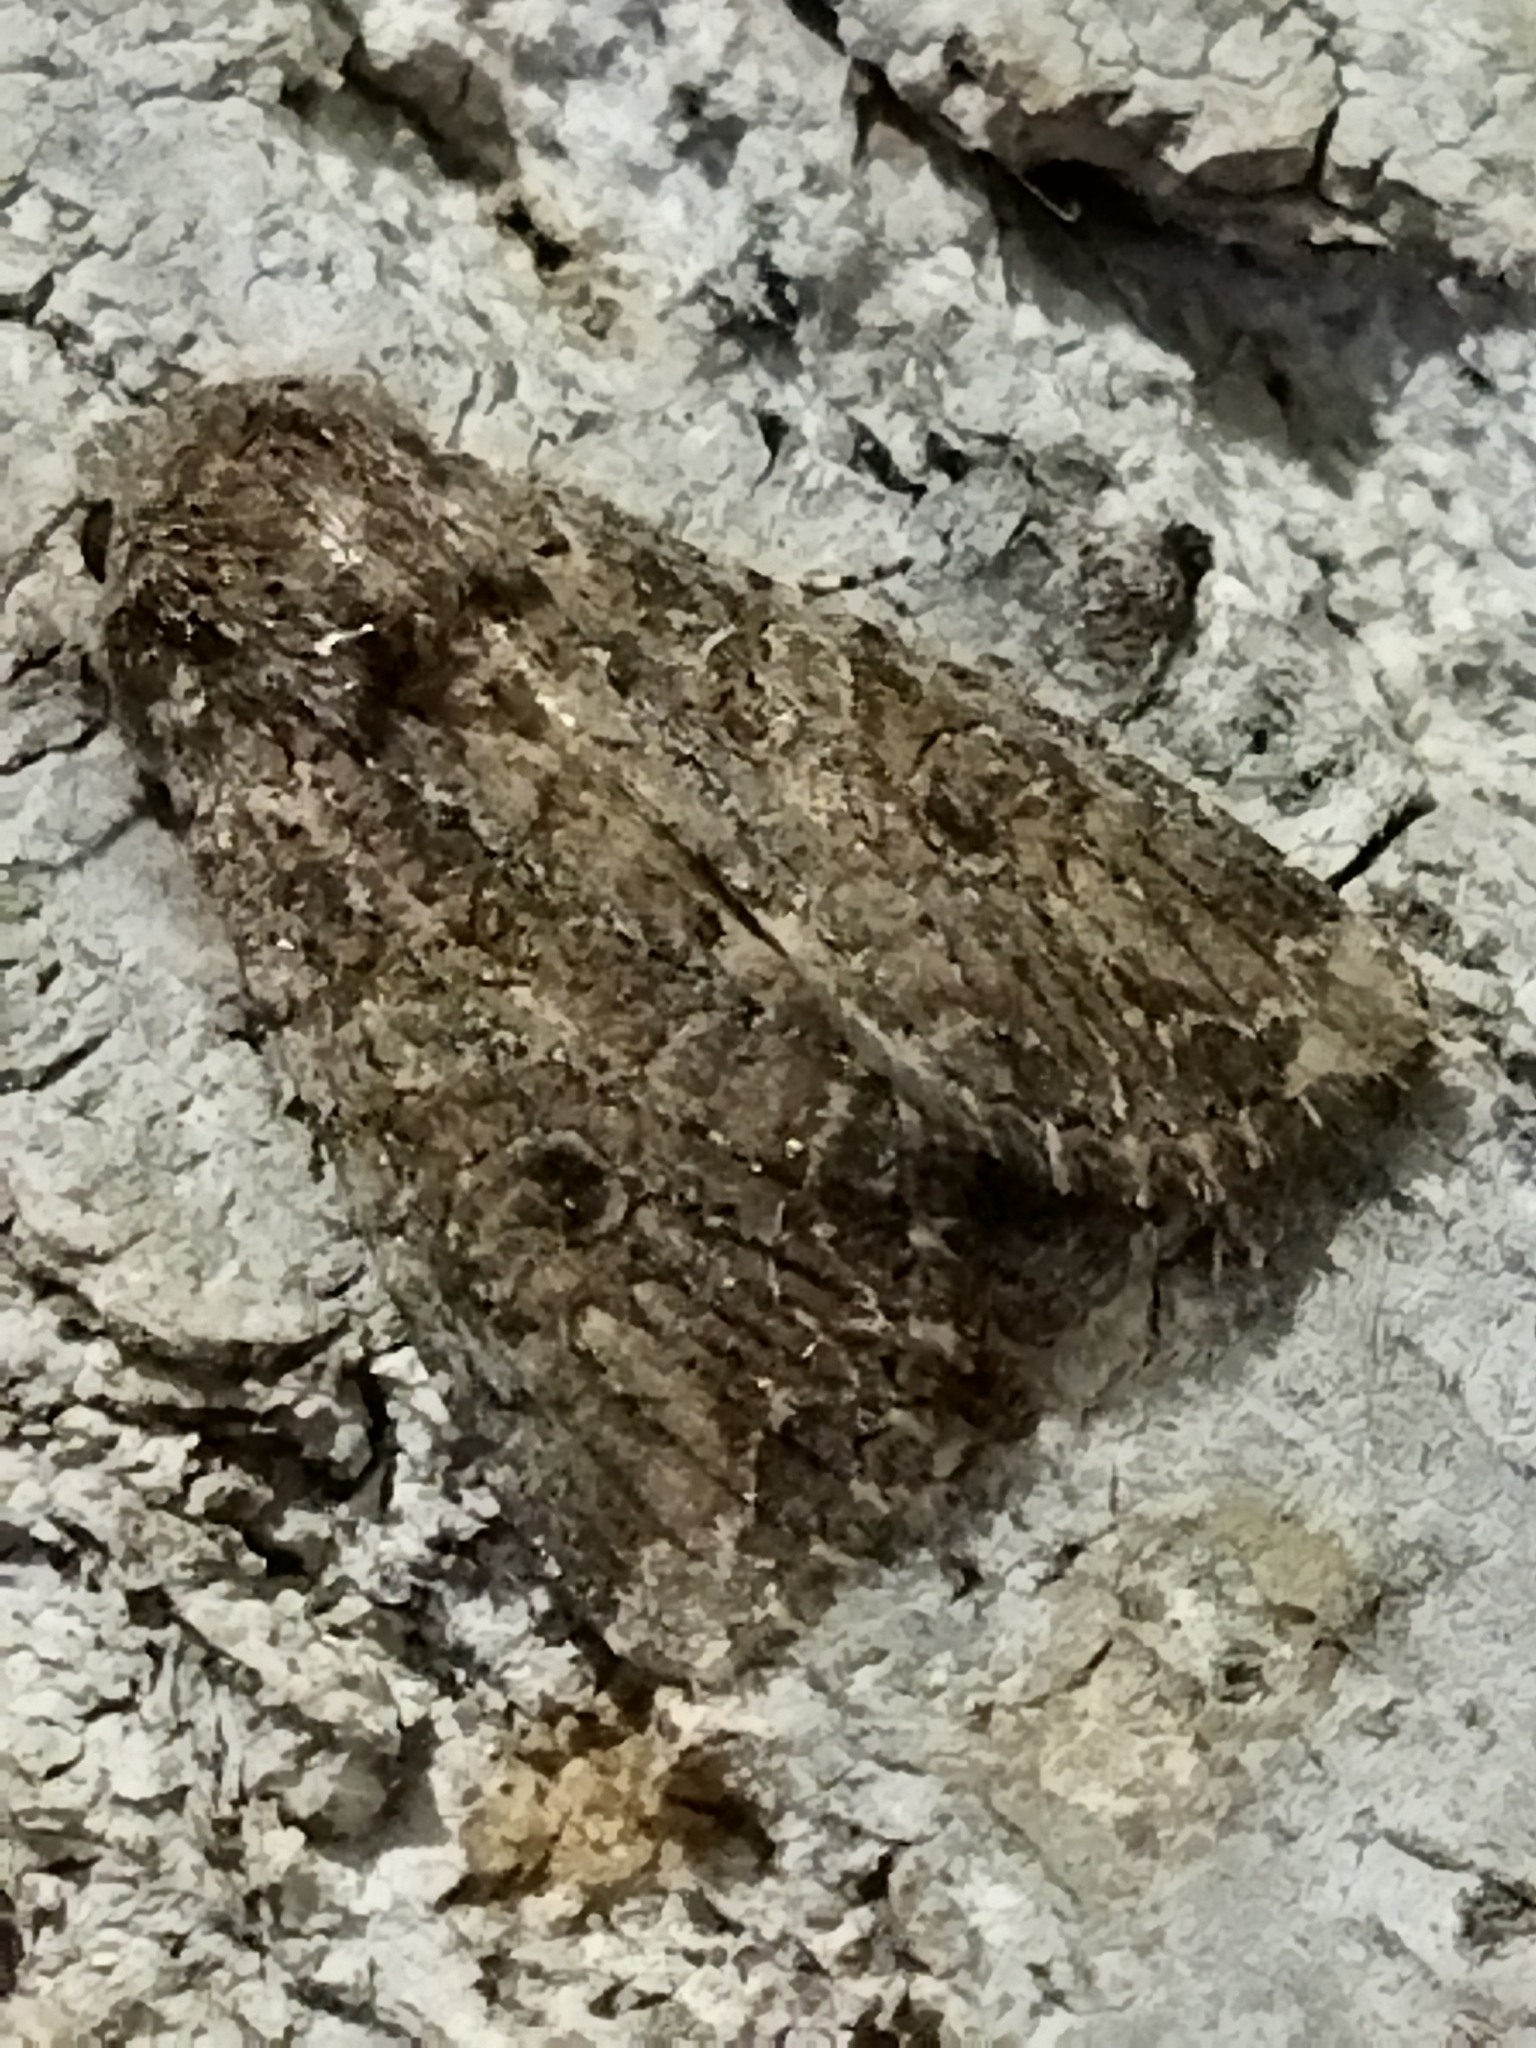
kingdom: Animalia
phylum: Arthropoda
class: Insecta
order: Lepidoptera
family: Noctuidae
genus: Anarta
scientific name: Anarta trifolii
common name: Clover cutworm moth
